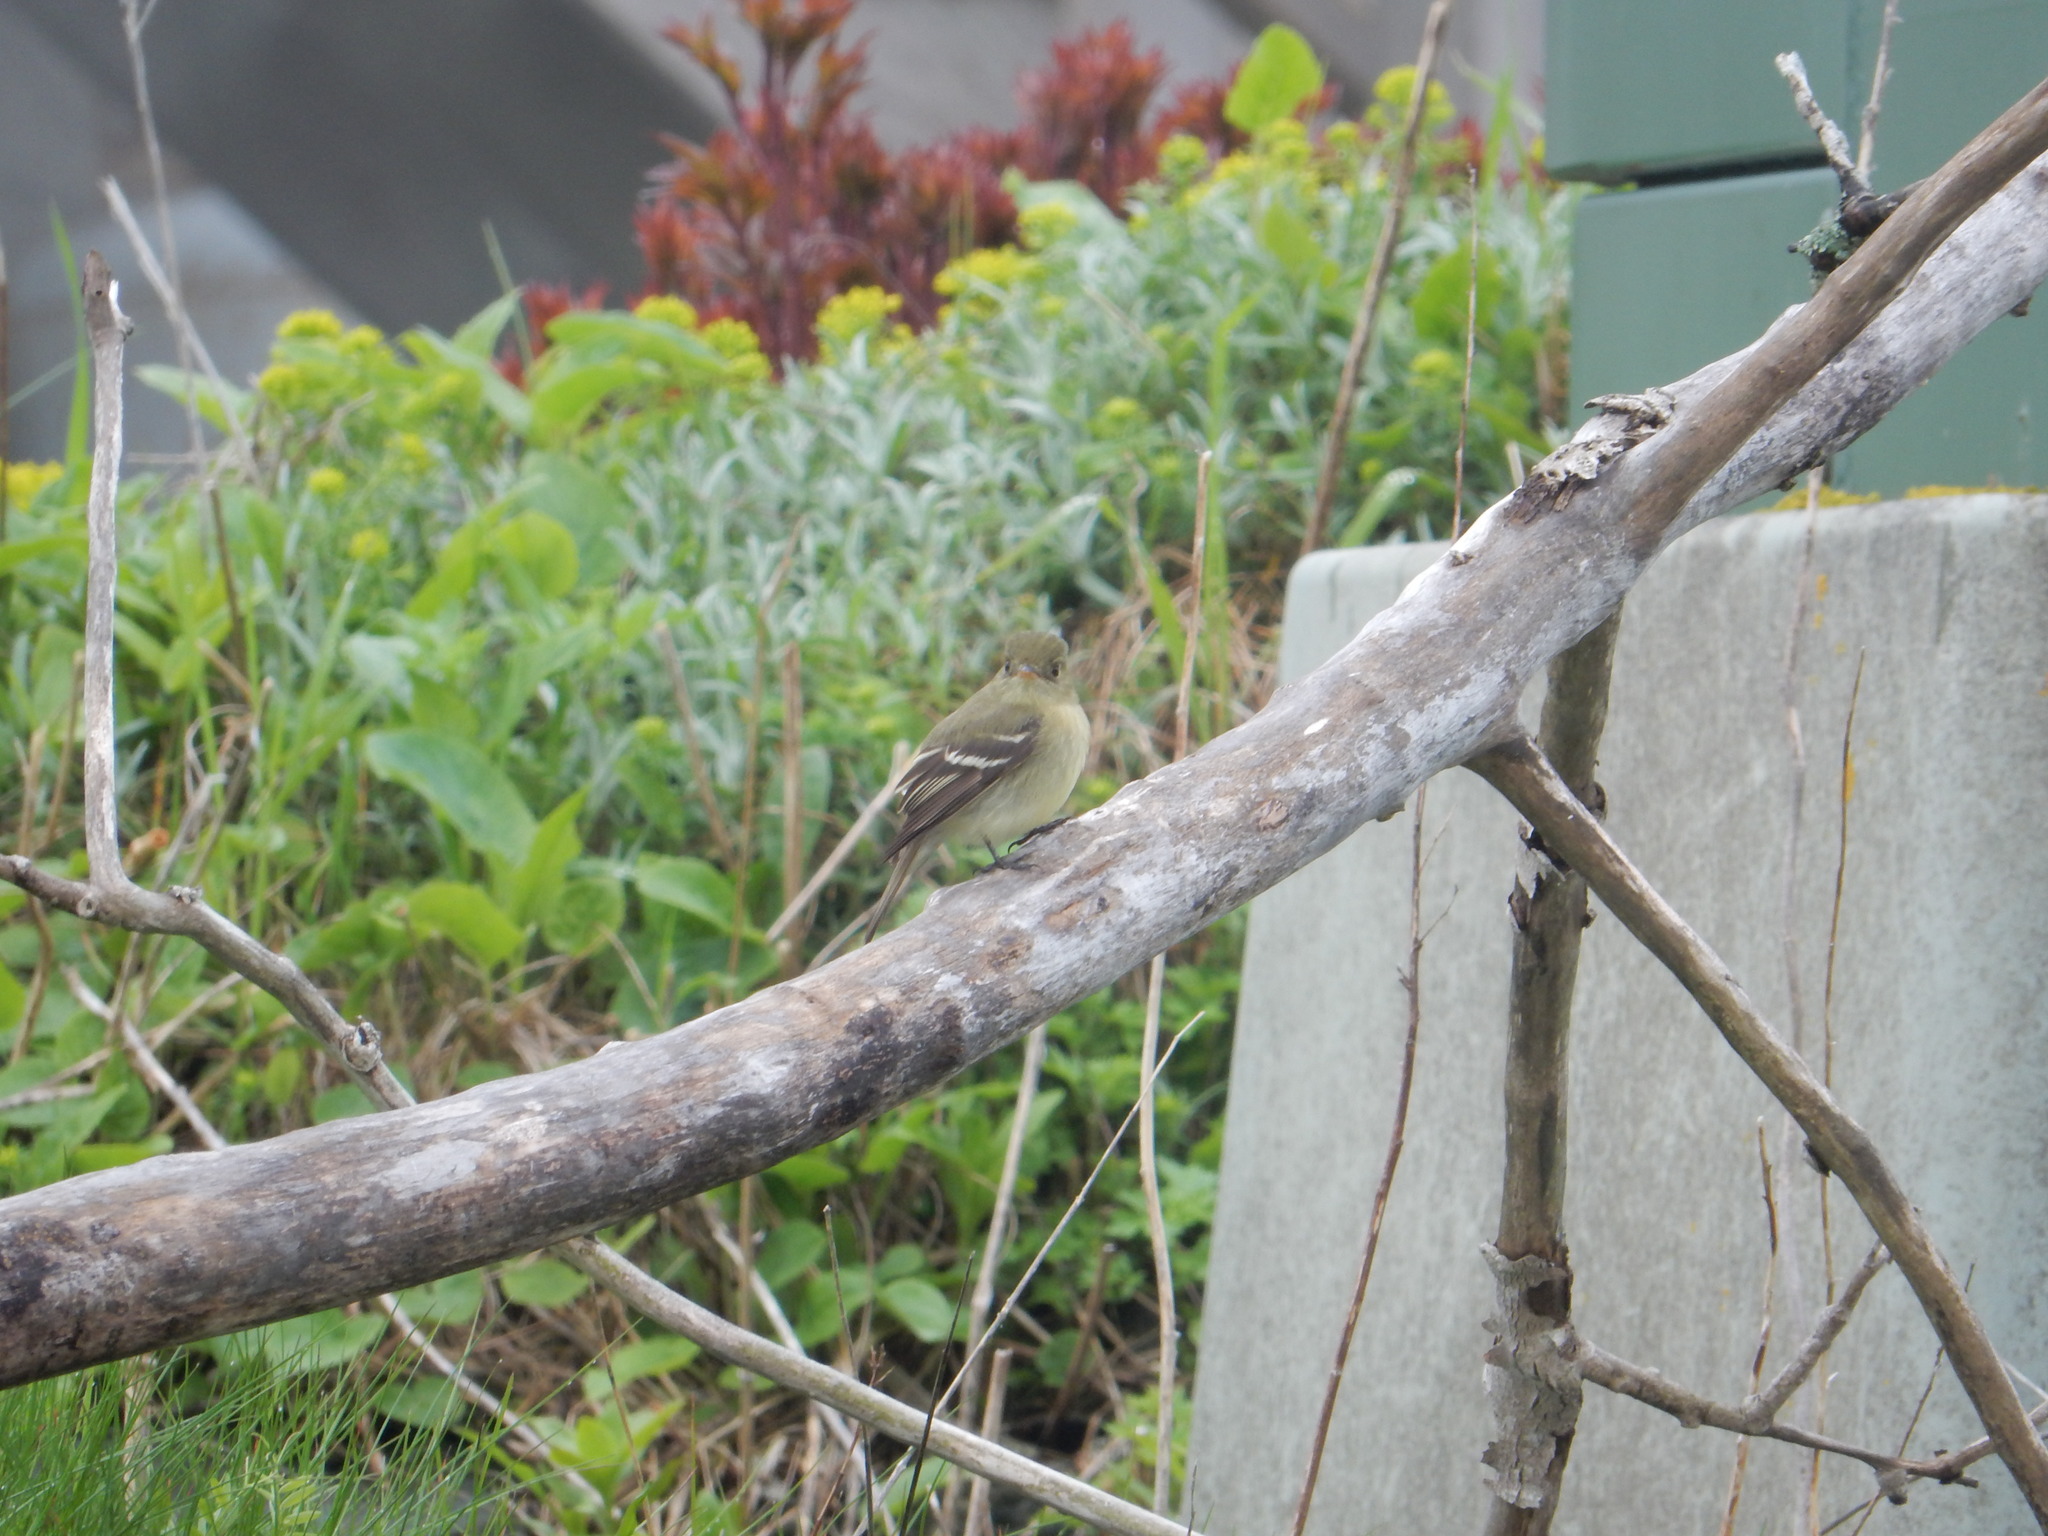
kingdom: Animalia
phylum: Chordata
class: Aves
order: Passeriformes
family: Tyrannidae
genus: Empidonax
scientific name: Empidonax flaviventris
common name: Yellow-bellied flycatcher
